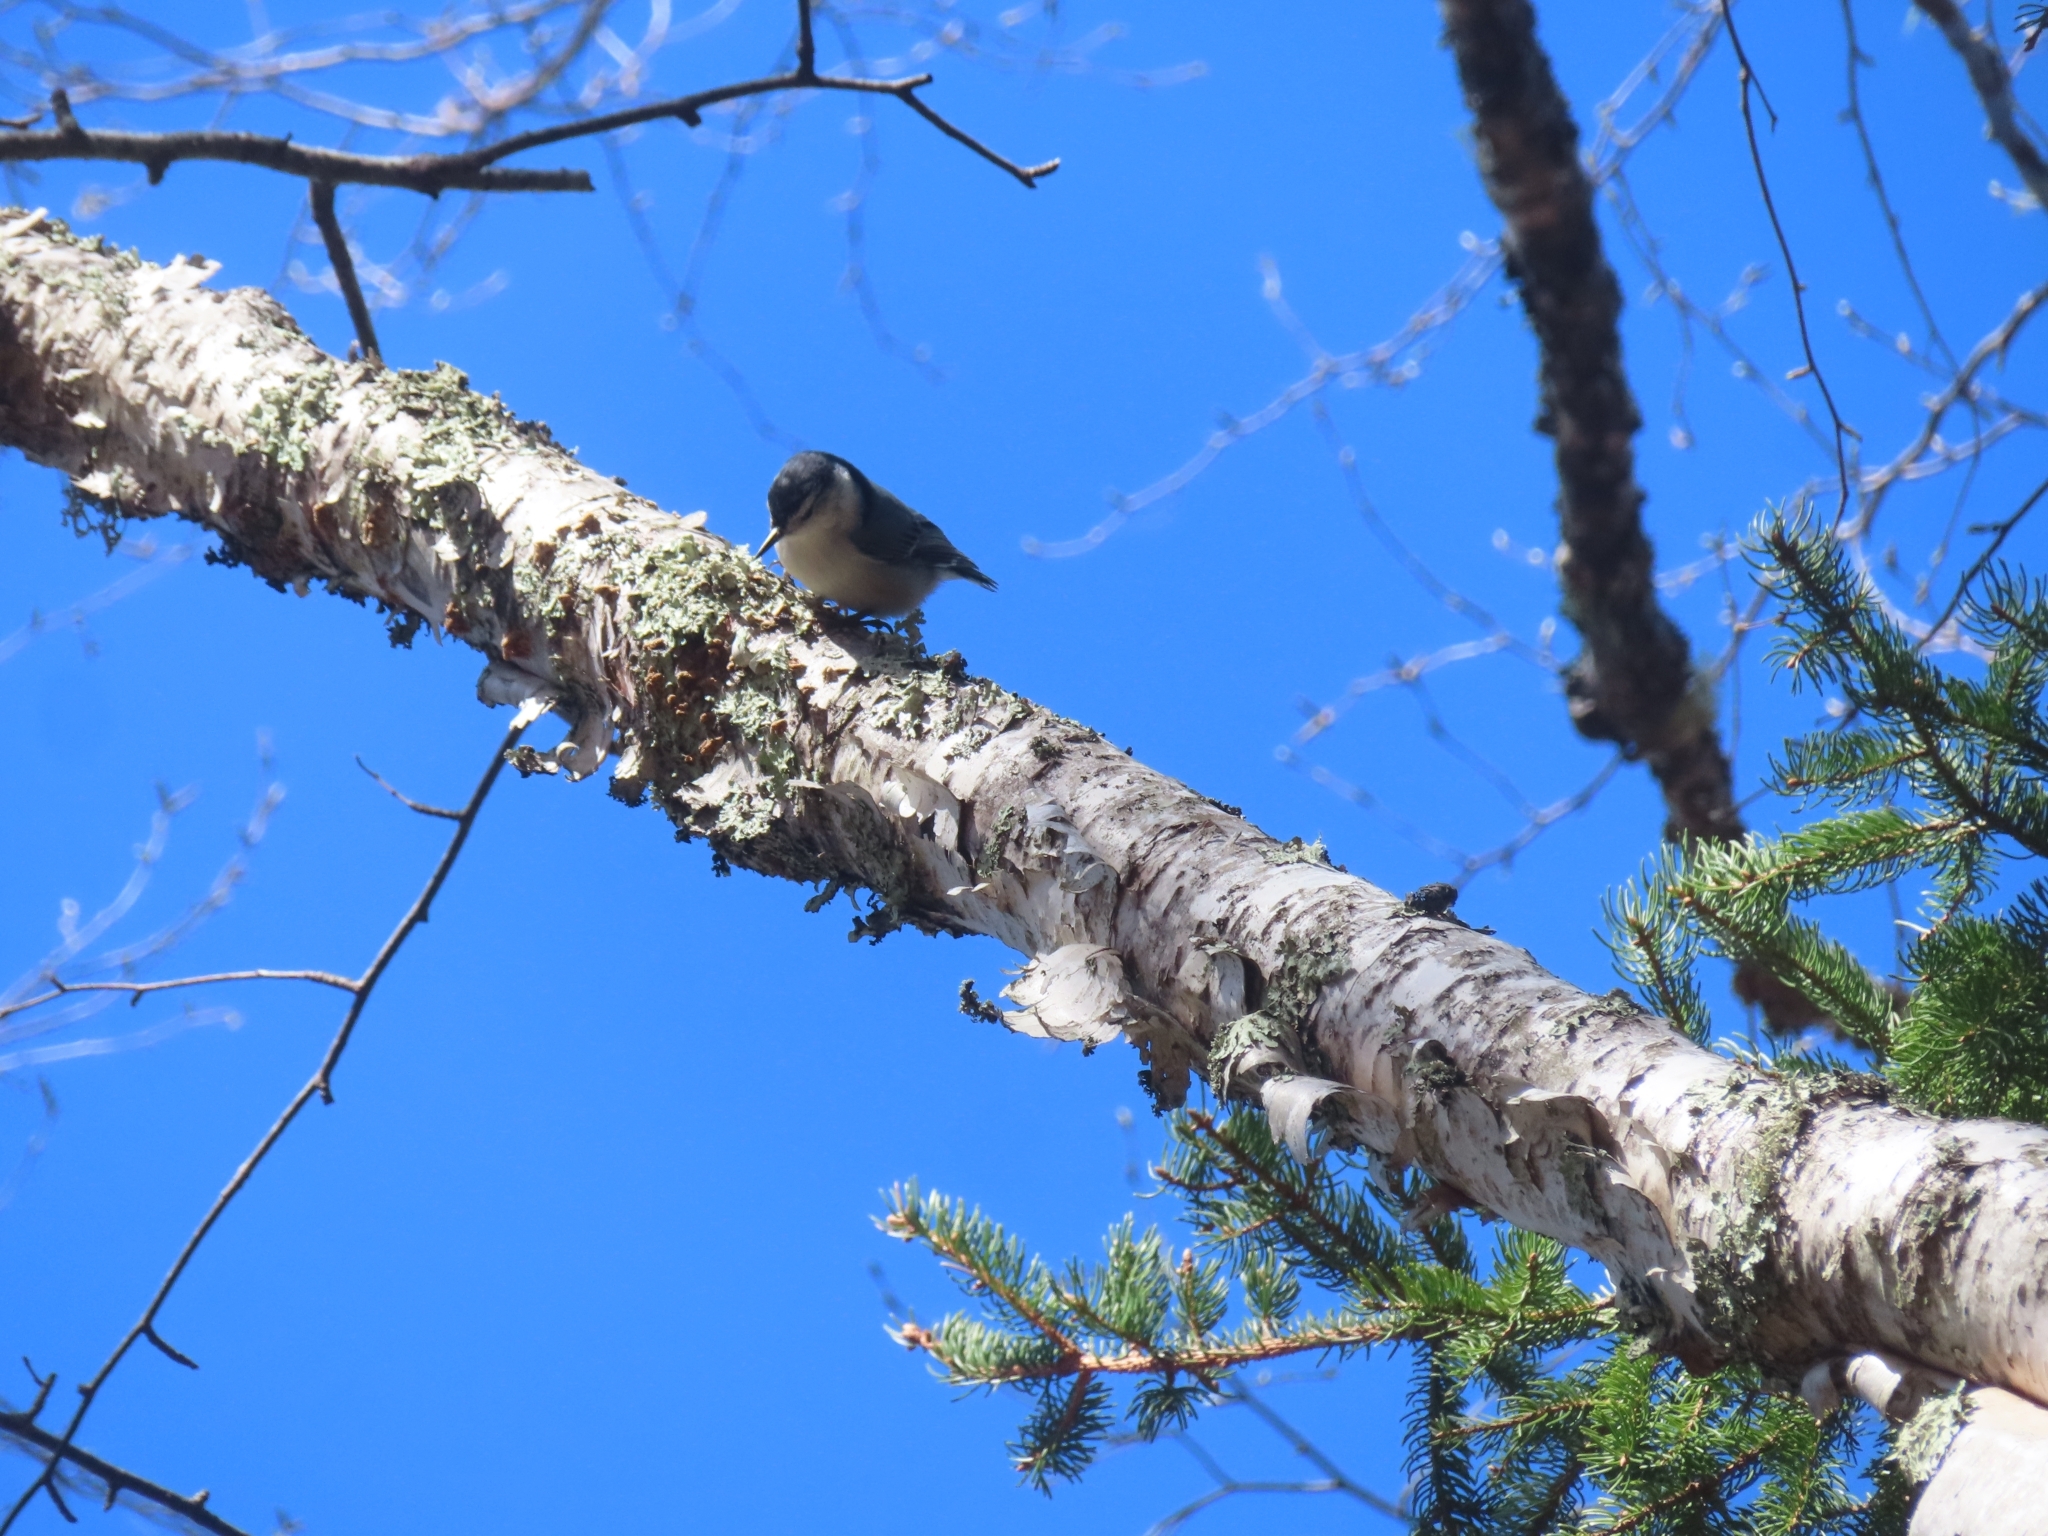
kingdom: Animalia
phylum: Chordata
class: Aves
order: Passeriformes
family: Sittidae
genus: Sitta
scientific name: Sitta carolinensis
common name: White-breasted nuthatch
